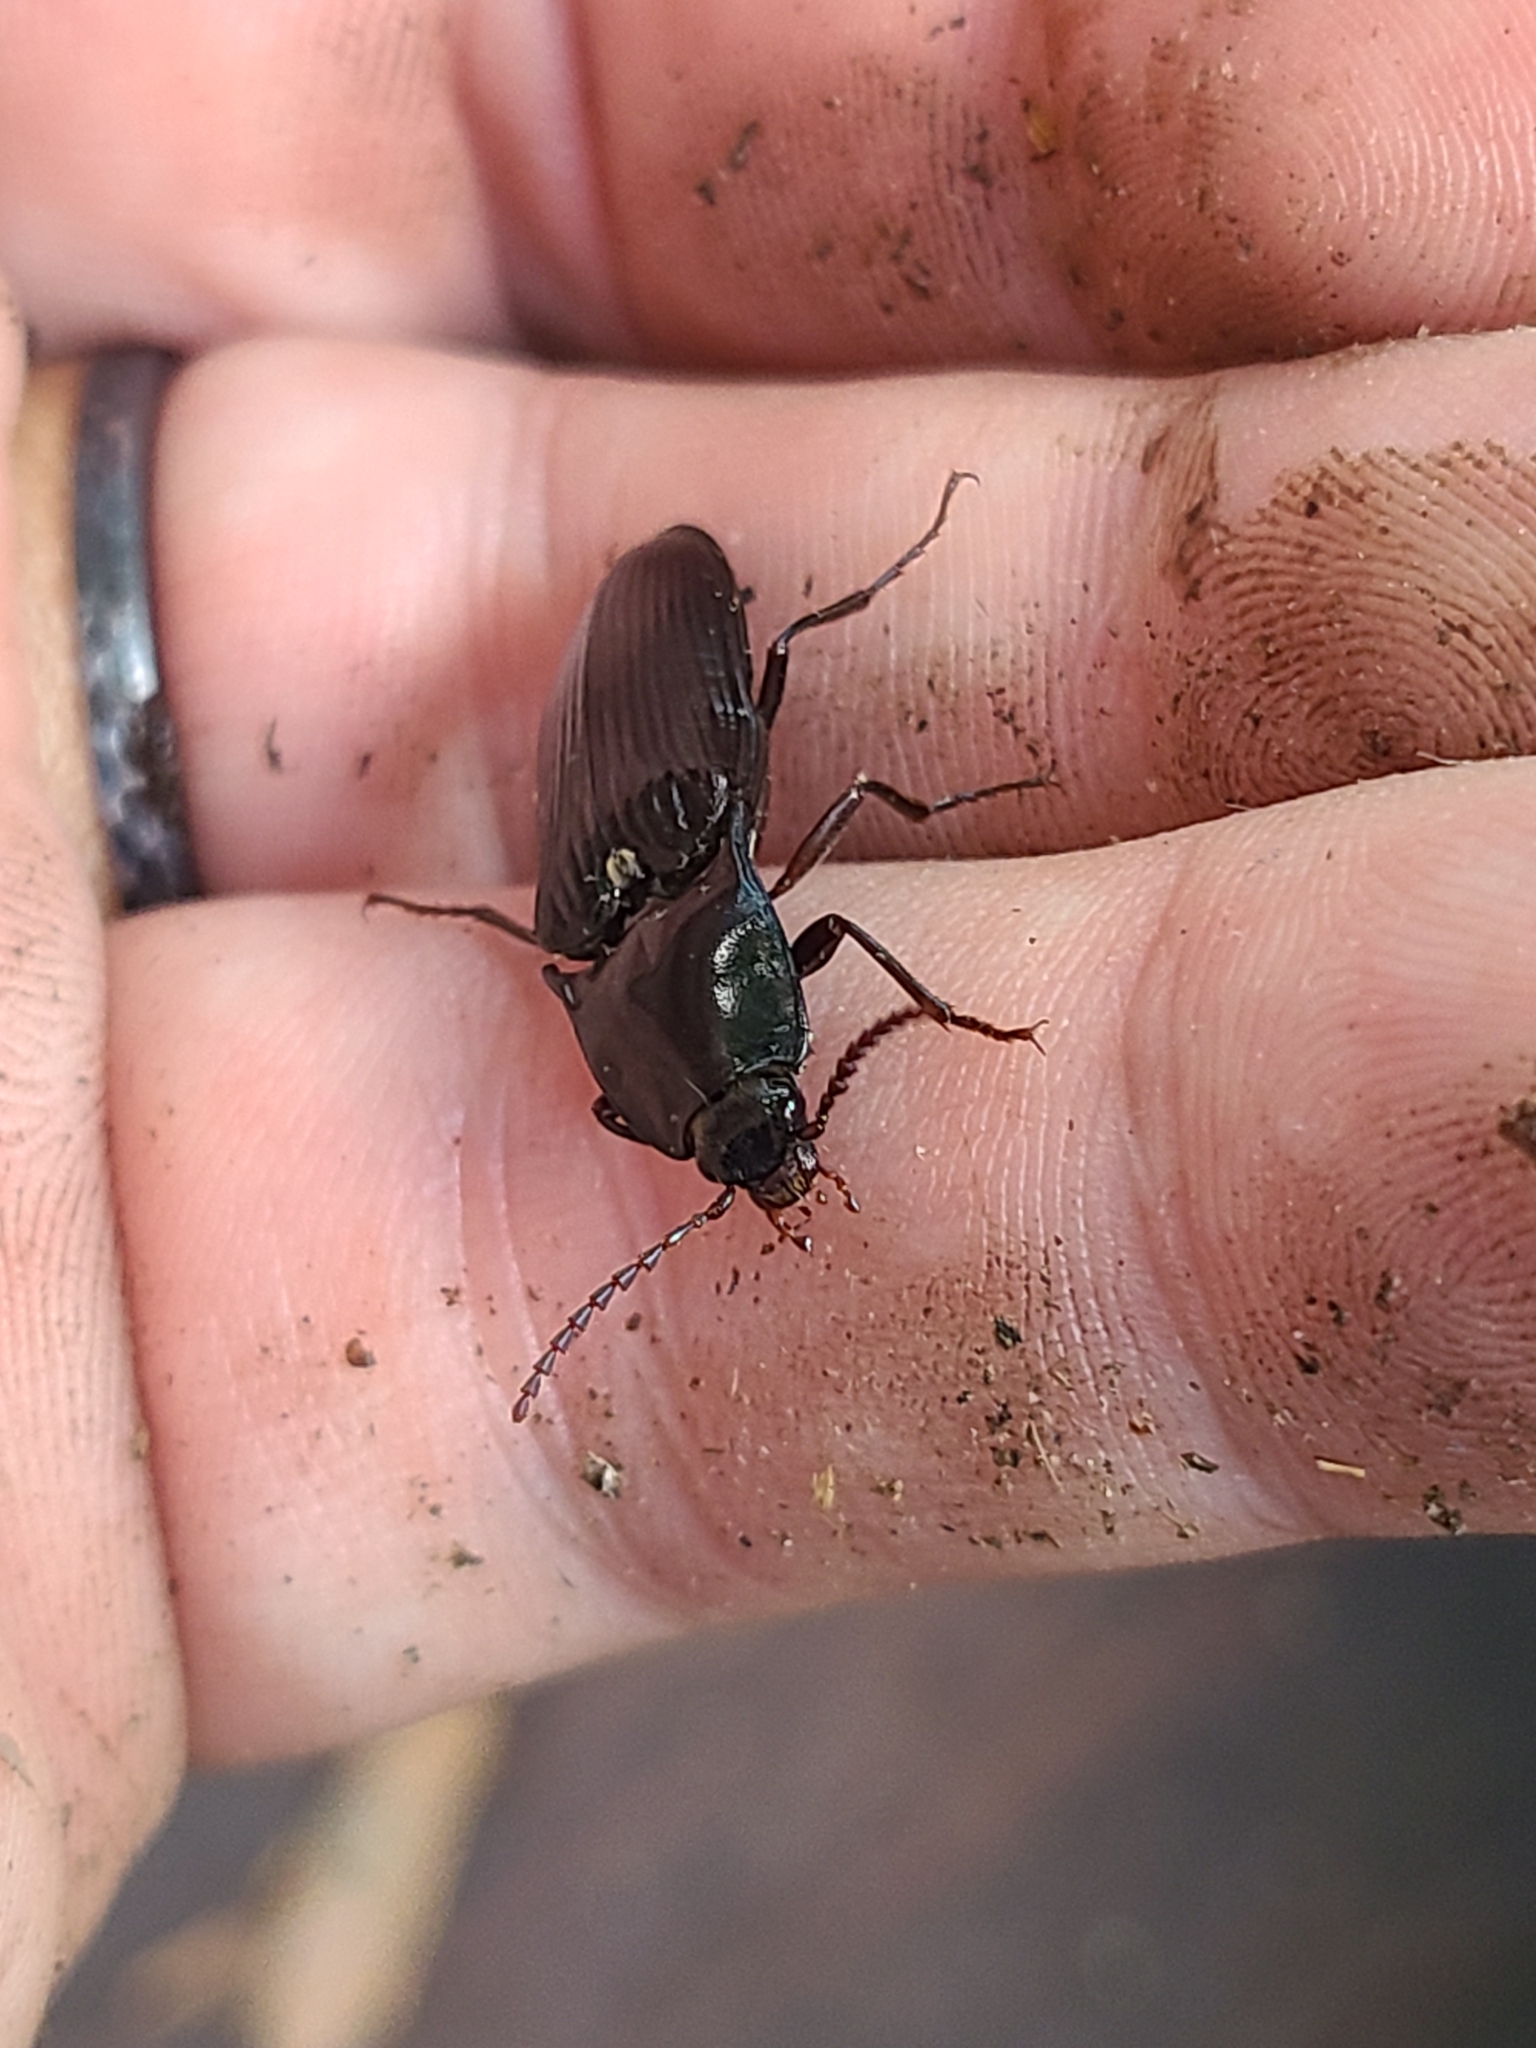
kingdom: Animalia
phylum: Arthropoda
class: Insecta
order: Coleoptera
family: Elateridae
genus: Melanactes
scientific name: Melanactes
